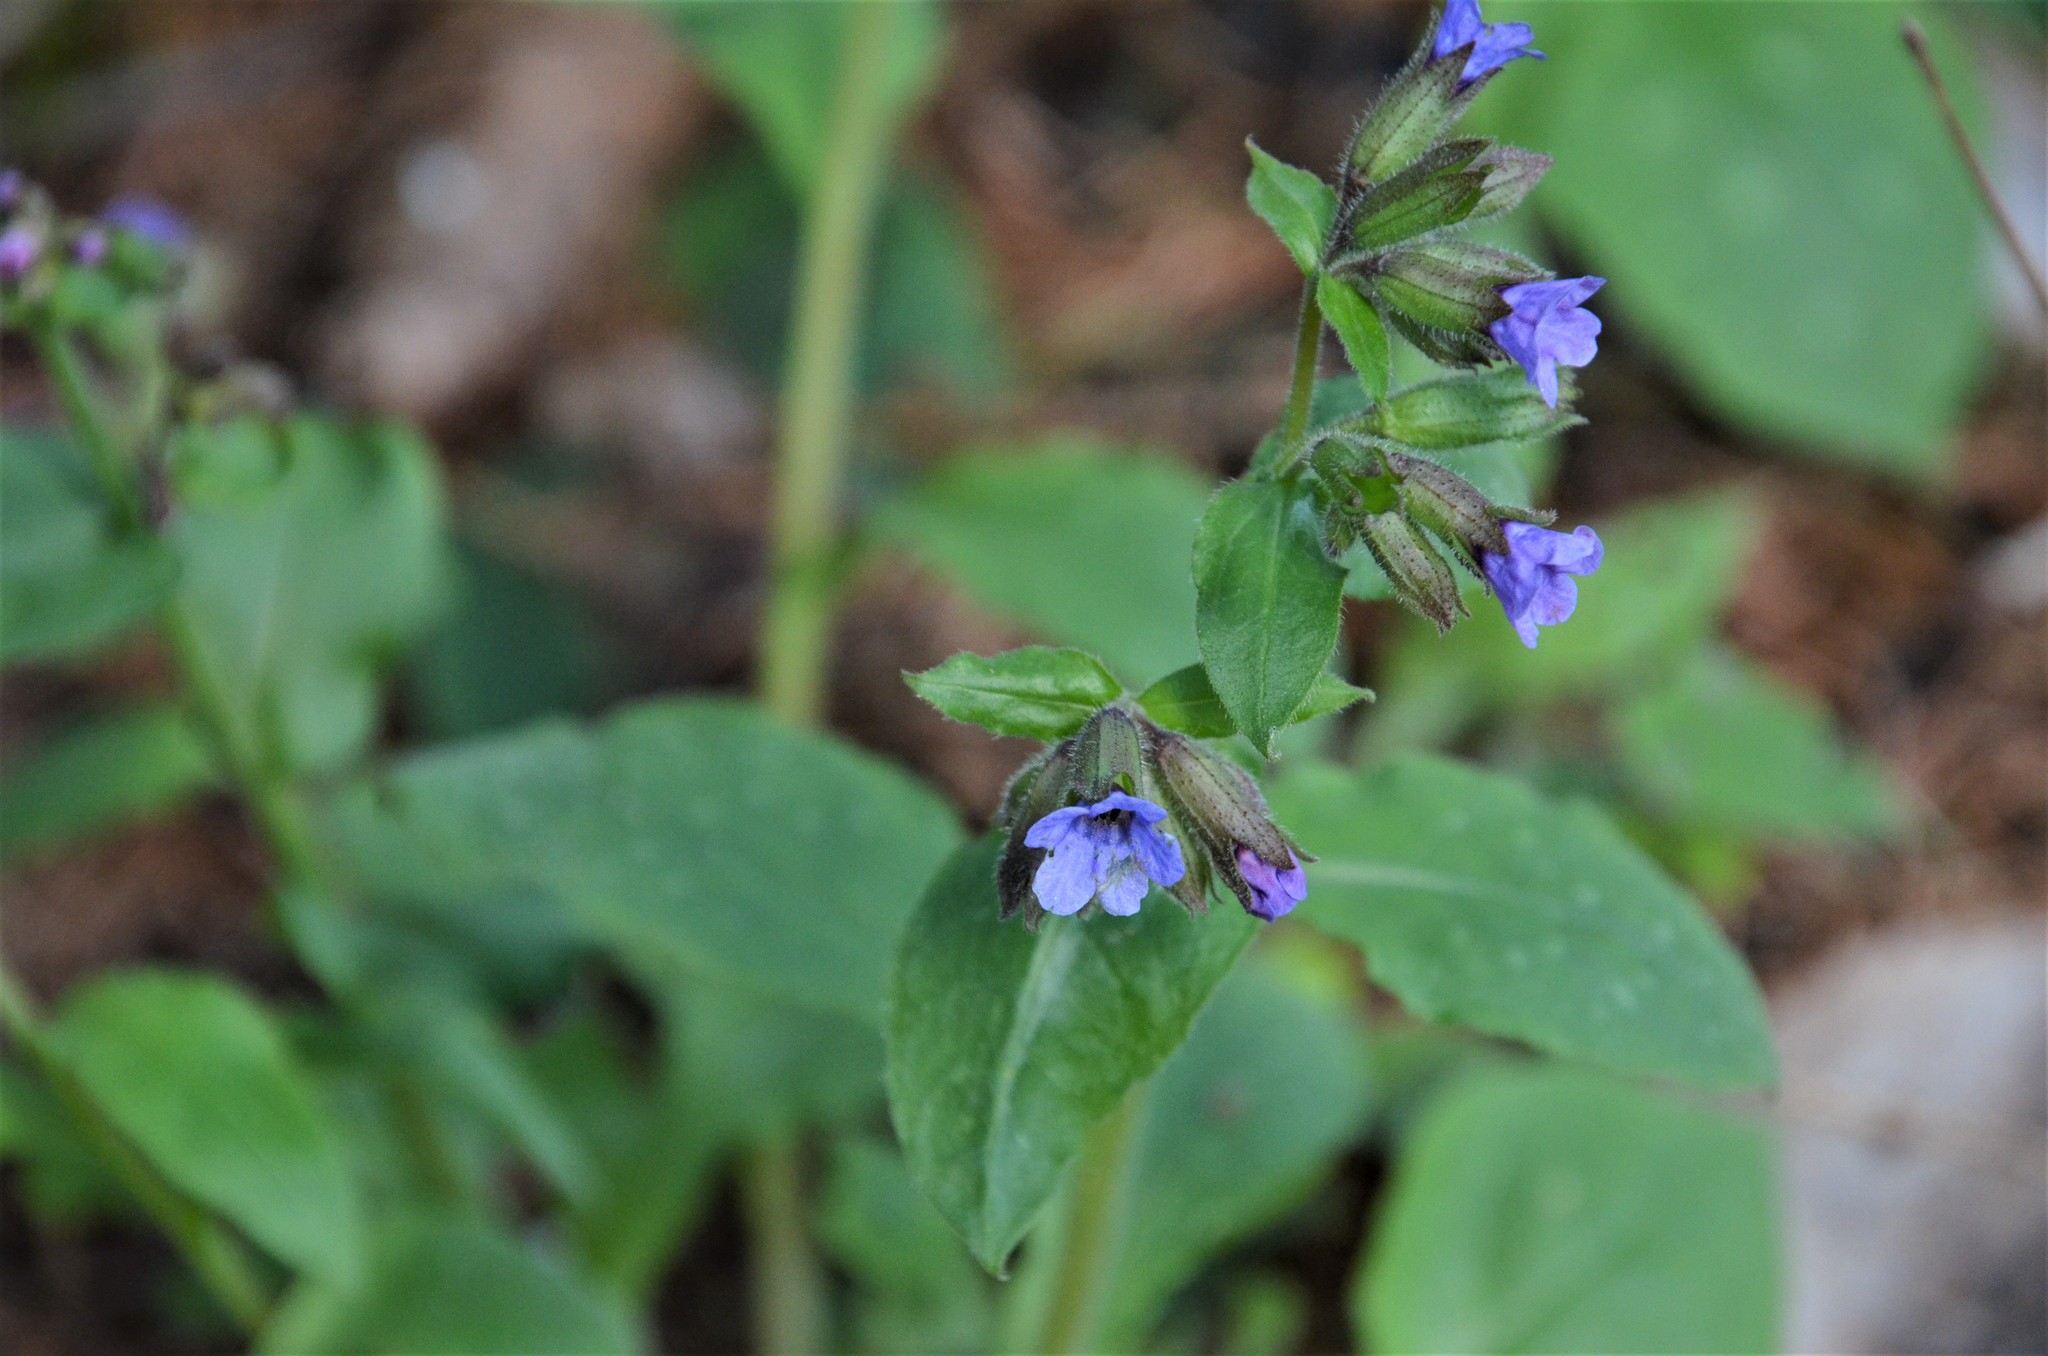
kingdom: Plantae
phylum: Tracheophyta
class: Magnoliopsida
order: Boraginales
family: Boraginaceae
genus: Pulmonaria
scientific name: Pulmonaria officinalis
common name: Lungwort
